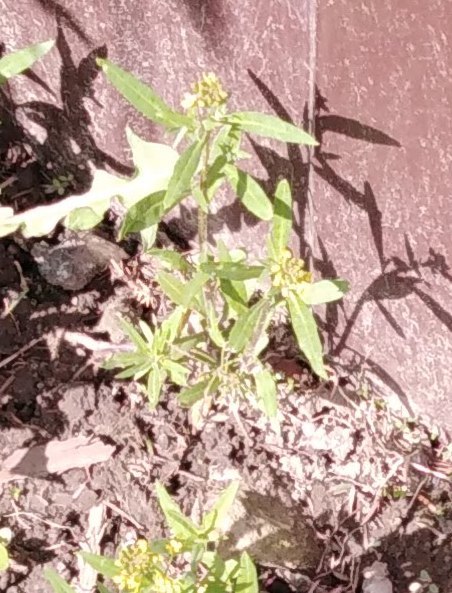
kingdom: Plantae
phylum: Tracheophyta
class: Magnoliopsida
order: Brassicales
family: Brassicaceae
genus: Erysimum
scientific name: Erysimum cheiranthoides
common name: Treacle mustard
